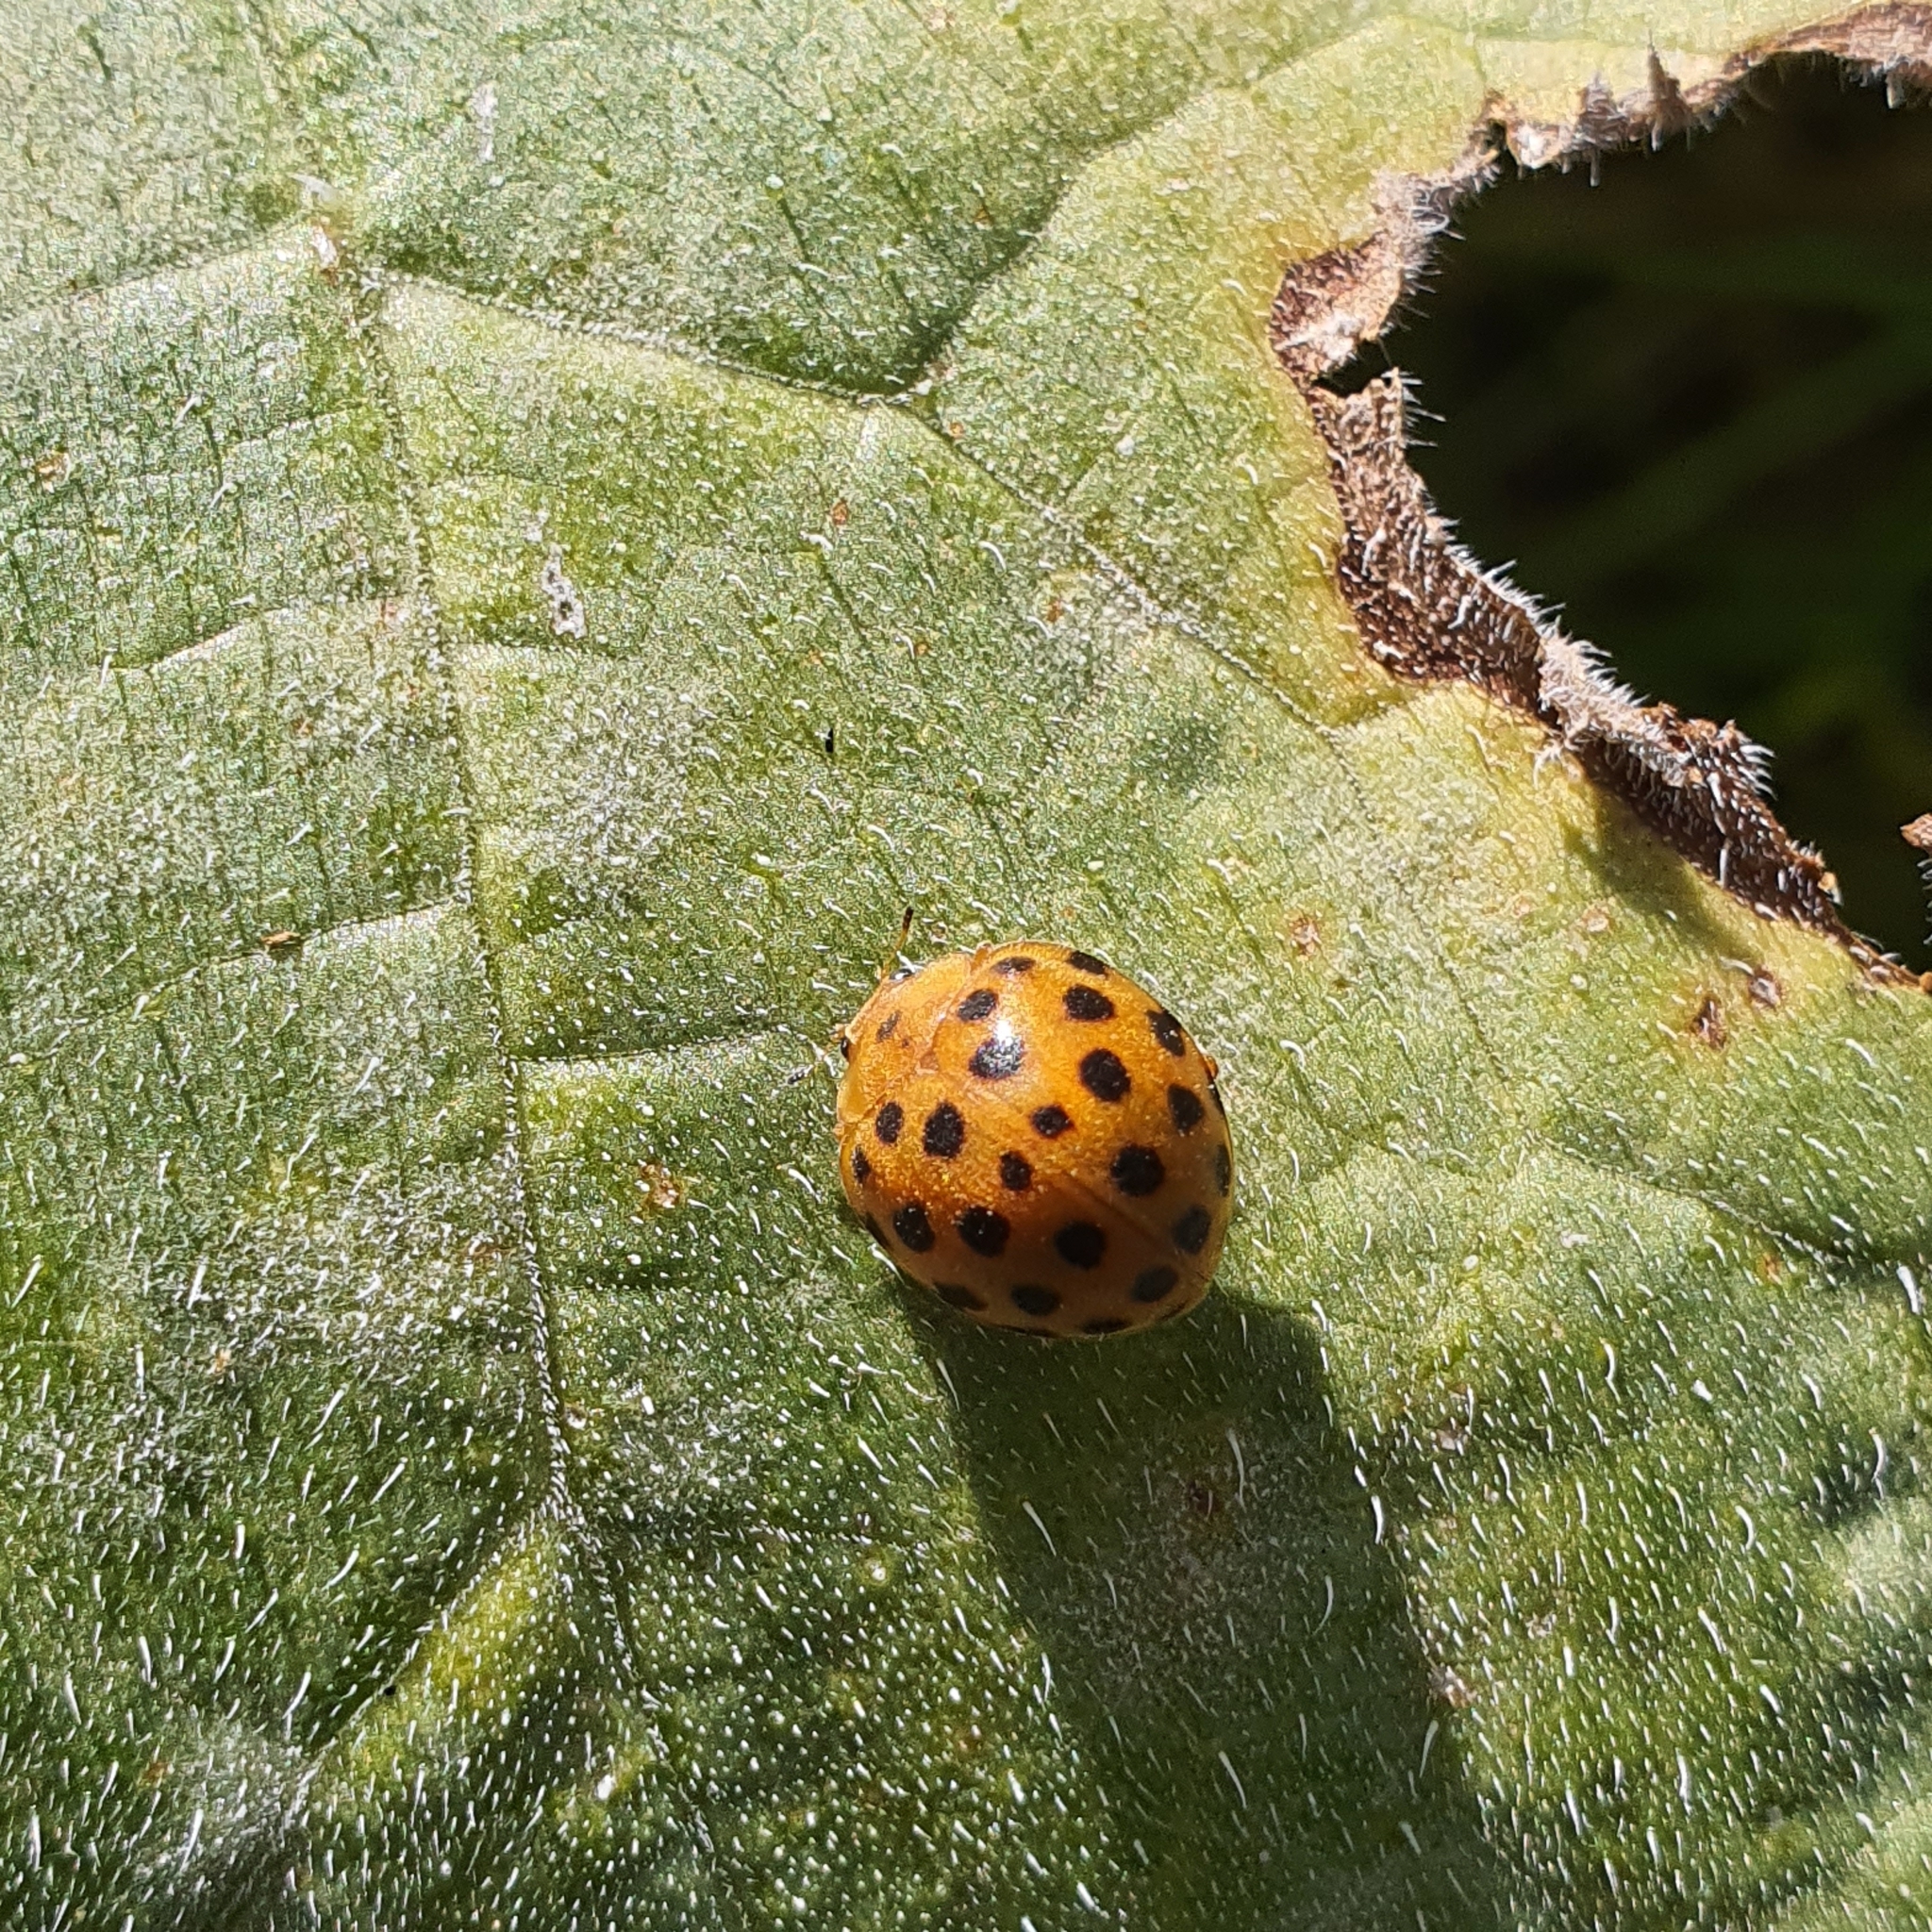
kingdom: Animalia
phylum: Arthropoda
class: Insecta
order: Coleoptera
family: Coccinellidae
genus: Henosepilachna
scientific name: Henosepilachna sumbana
